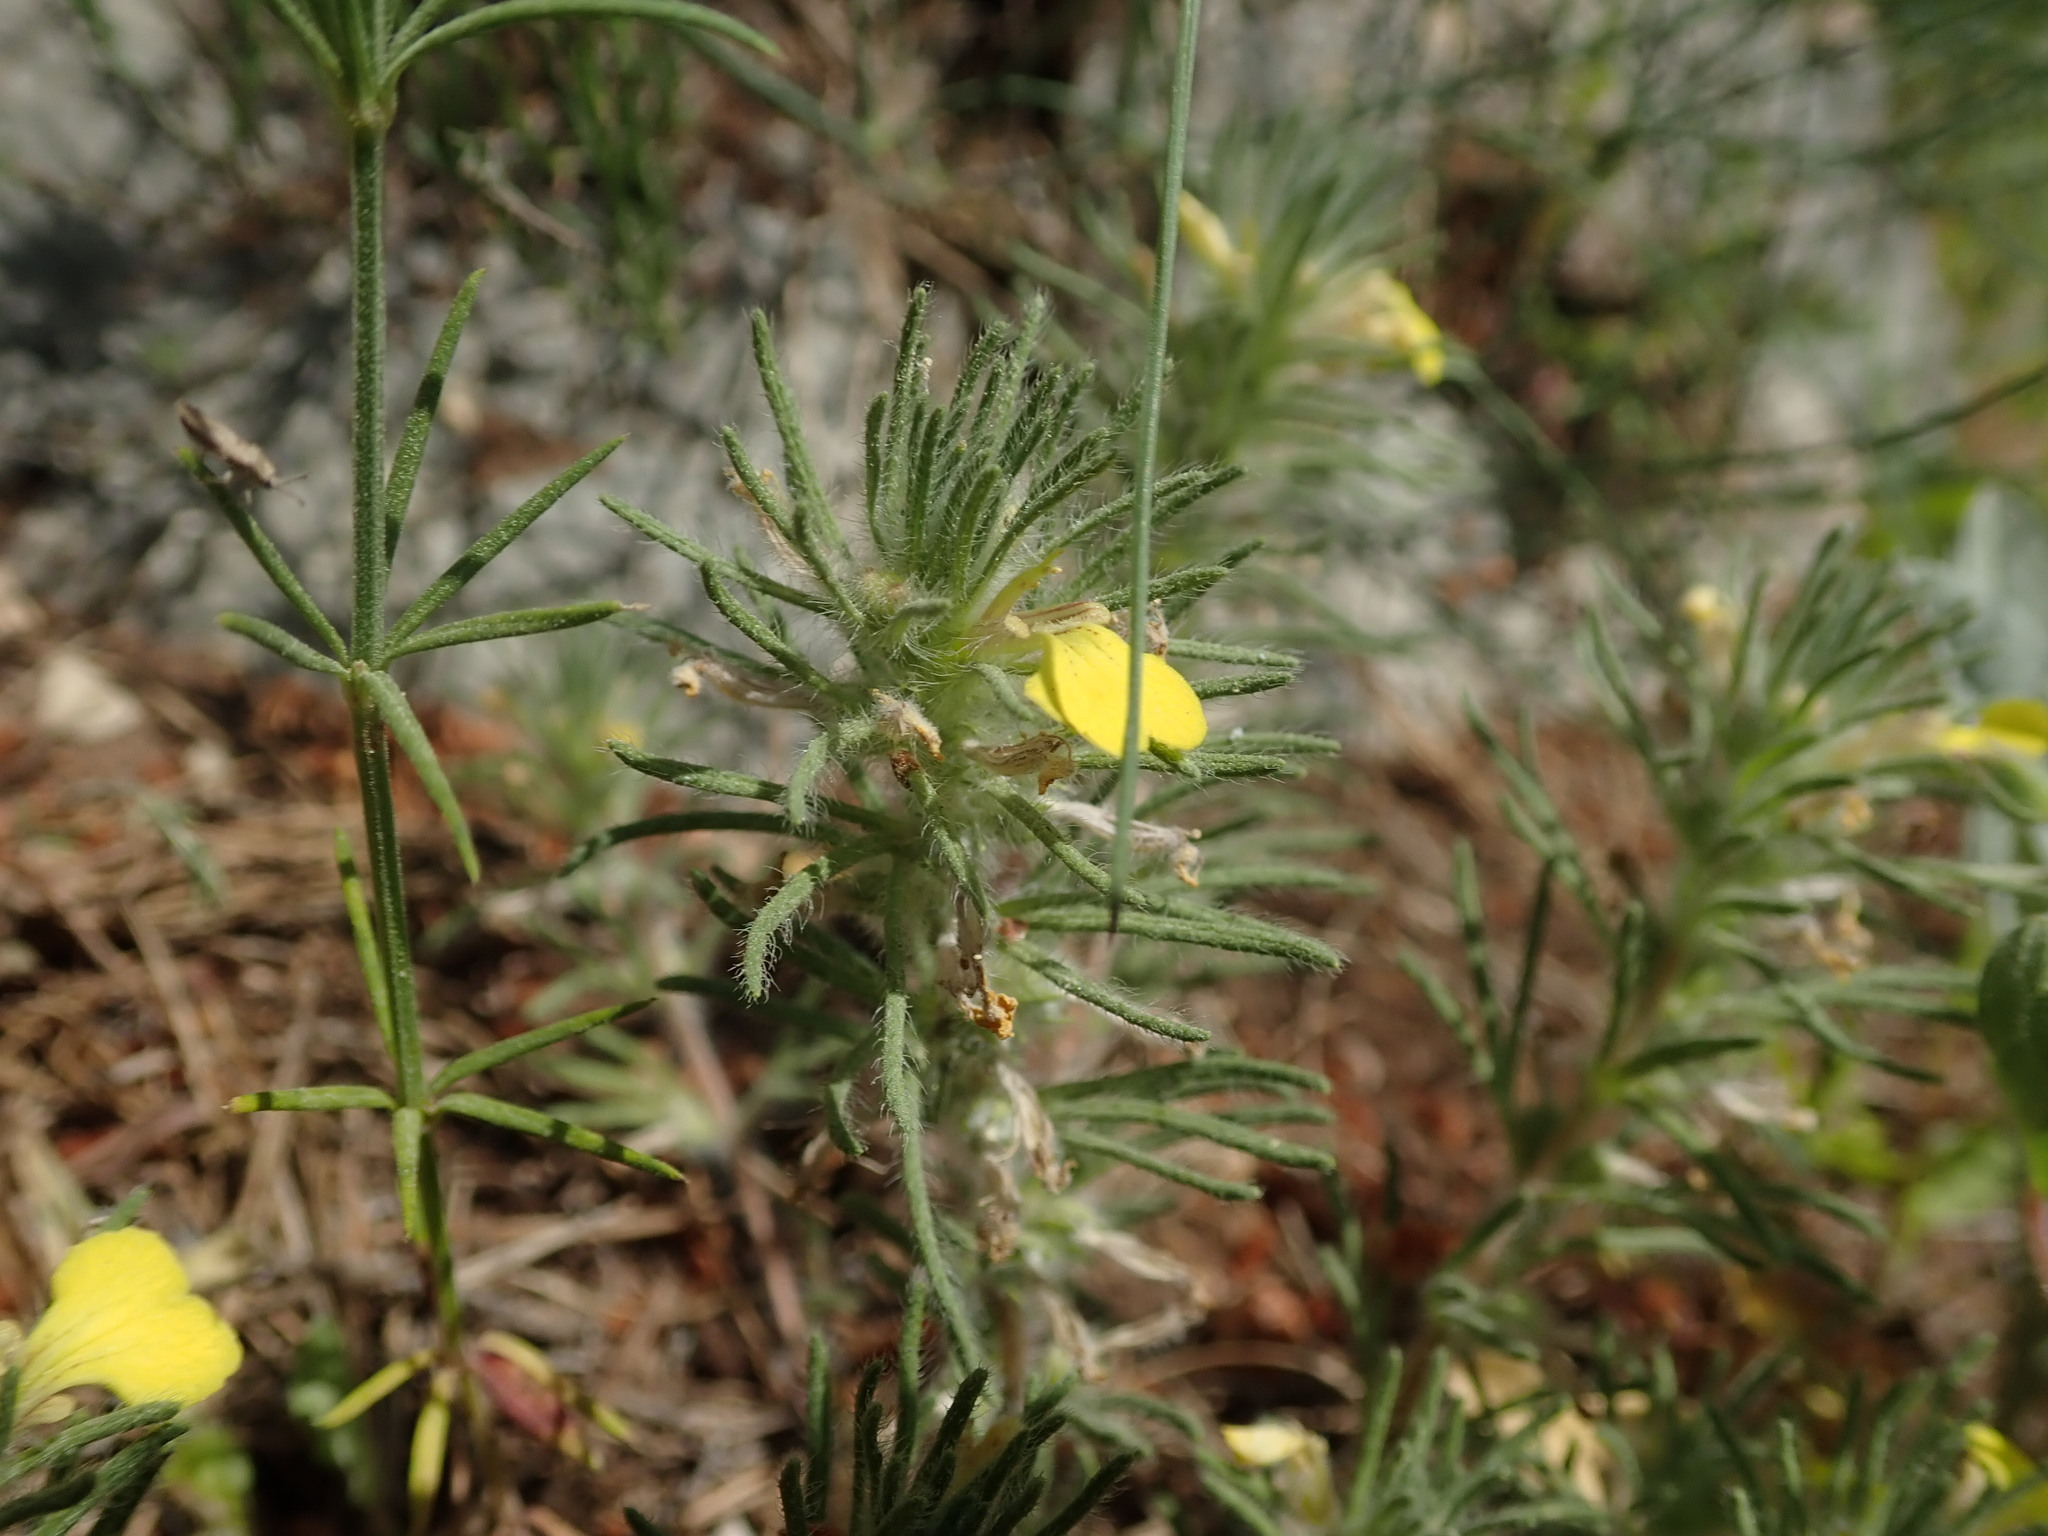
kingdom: Plantae
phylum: Tracheophyta
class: Magnoliopsida
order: Lamiales
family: Lamiaceae
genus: Ajuga
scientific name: Ajuga chamaepitys
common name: Ground-pine
